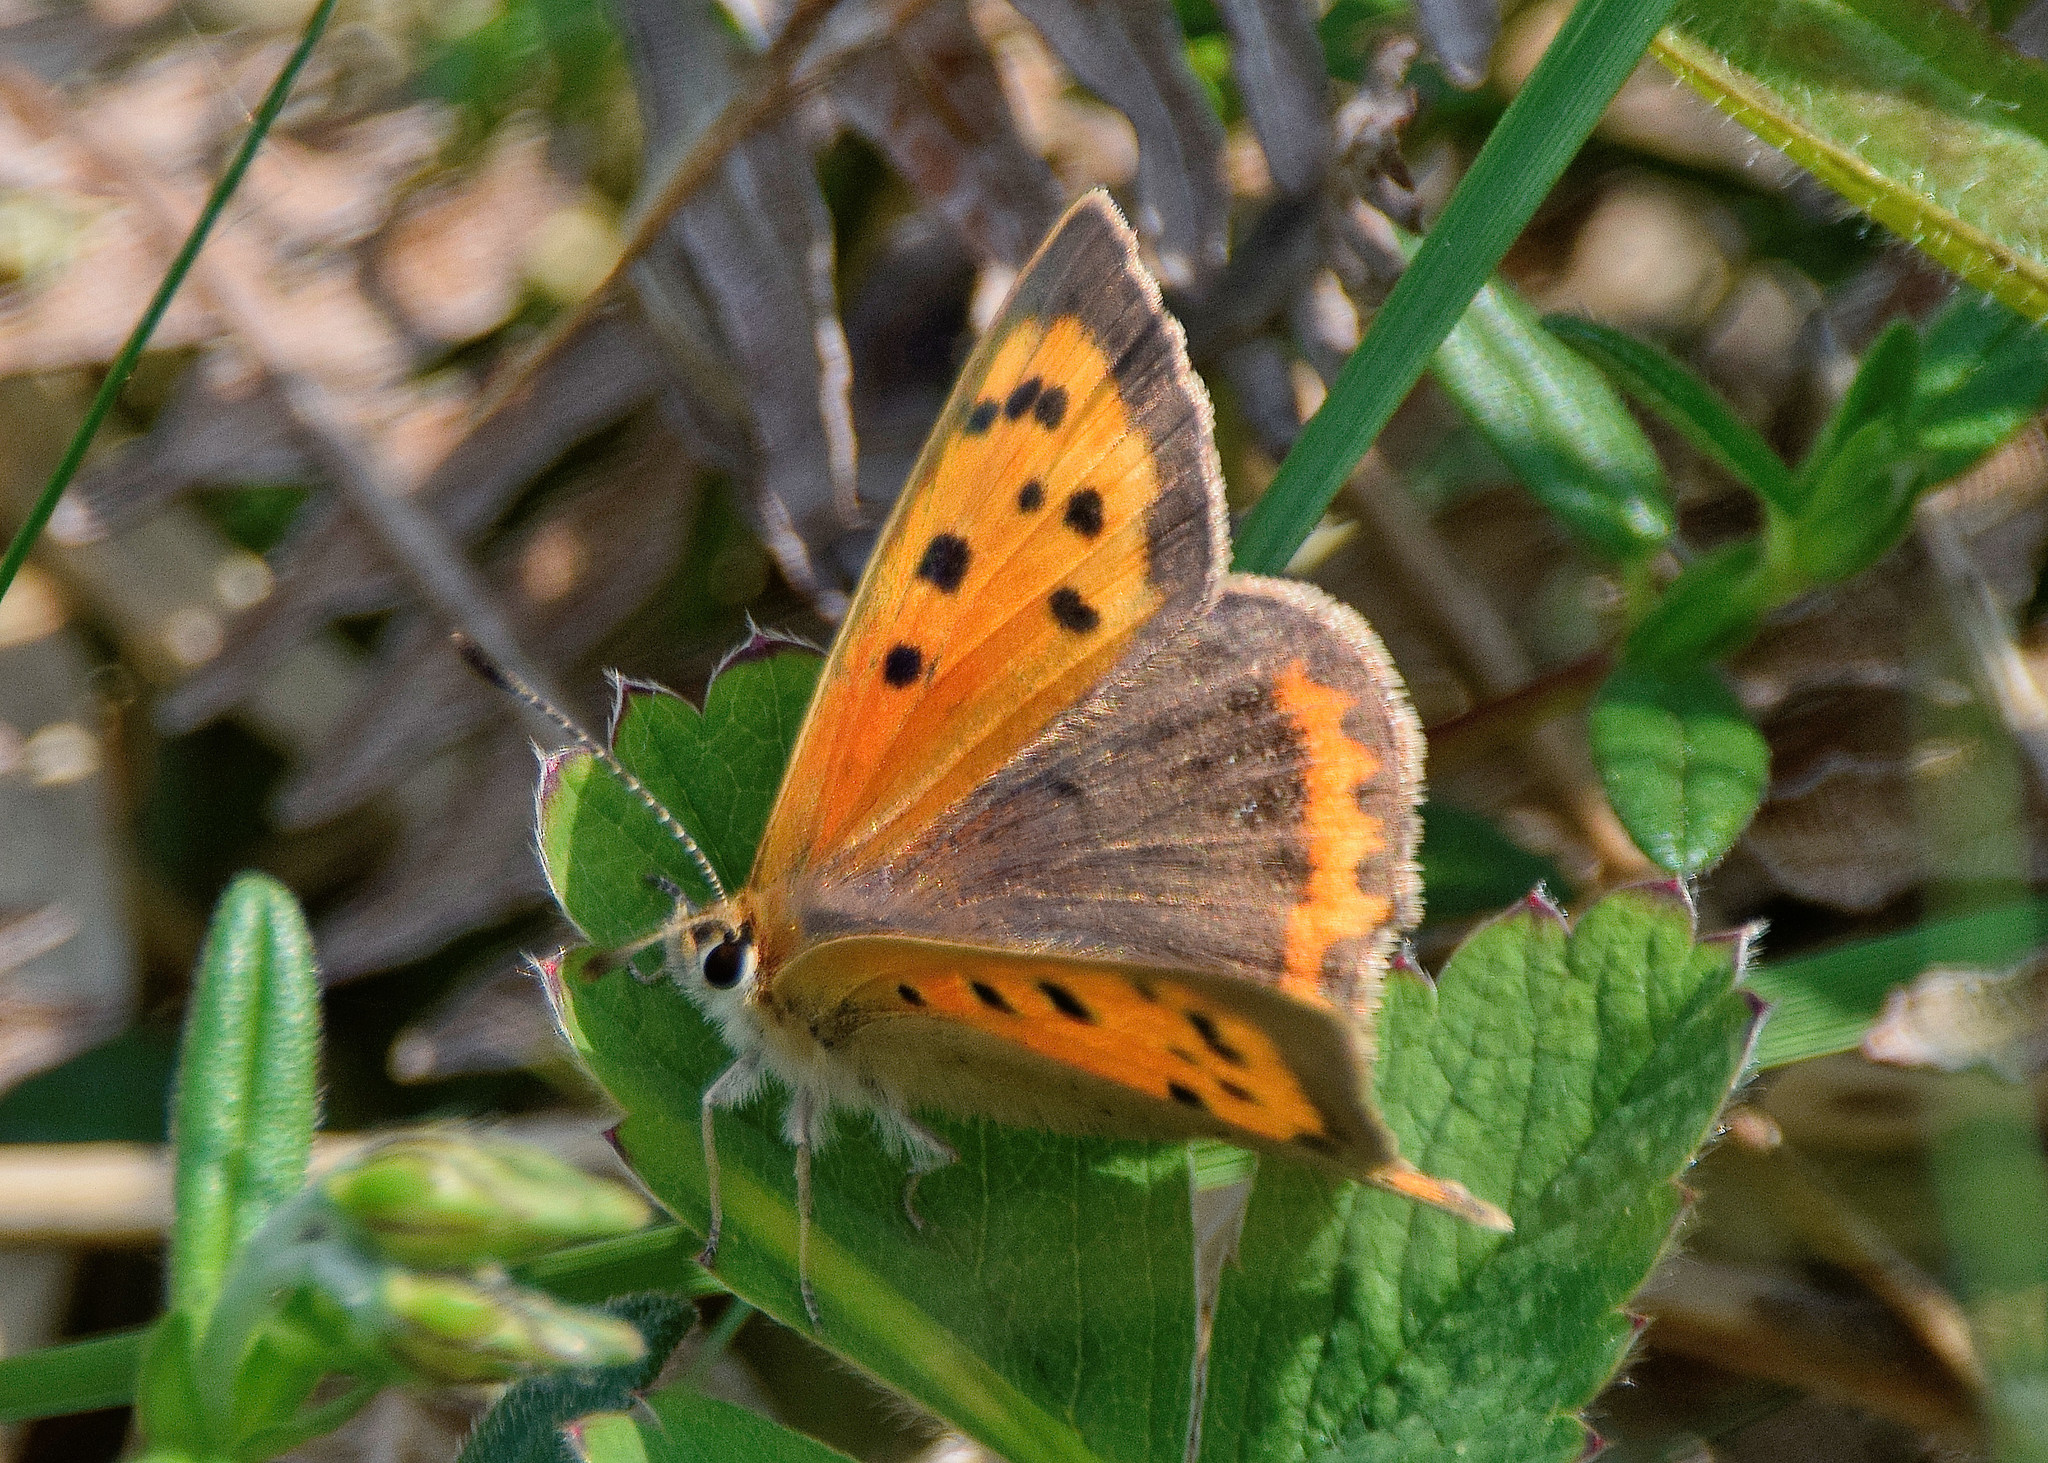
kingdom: Animalia
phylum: Arthropoda
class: Insecta
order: Lepidoptera
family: Lycaenidae
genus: Lycaena
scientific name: Lycaena phlaeas
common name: Small copper
